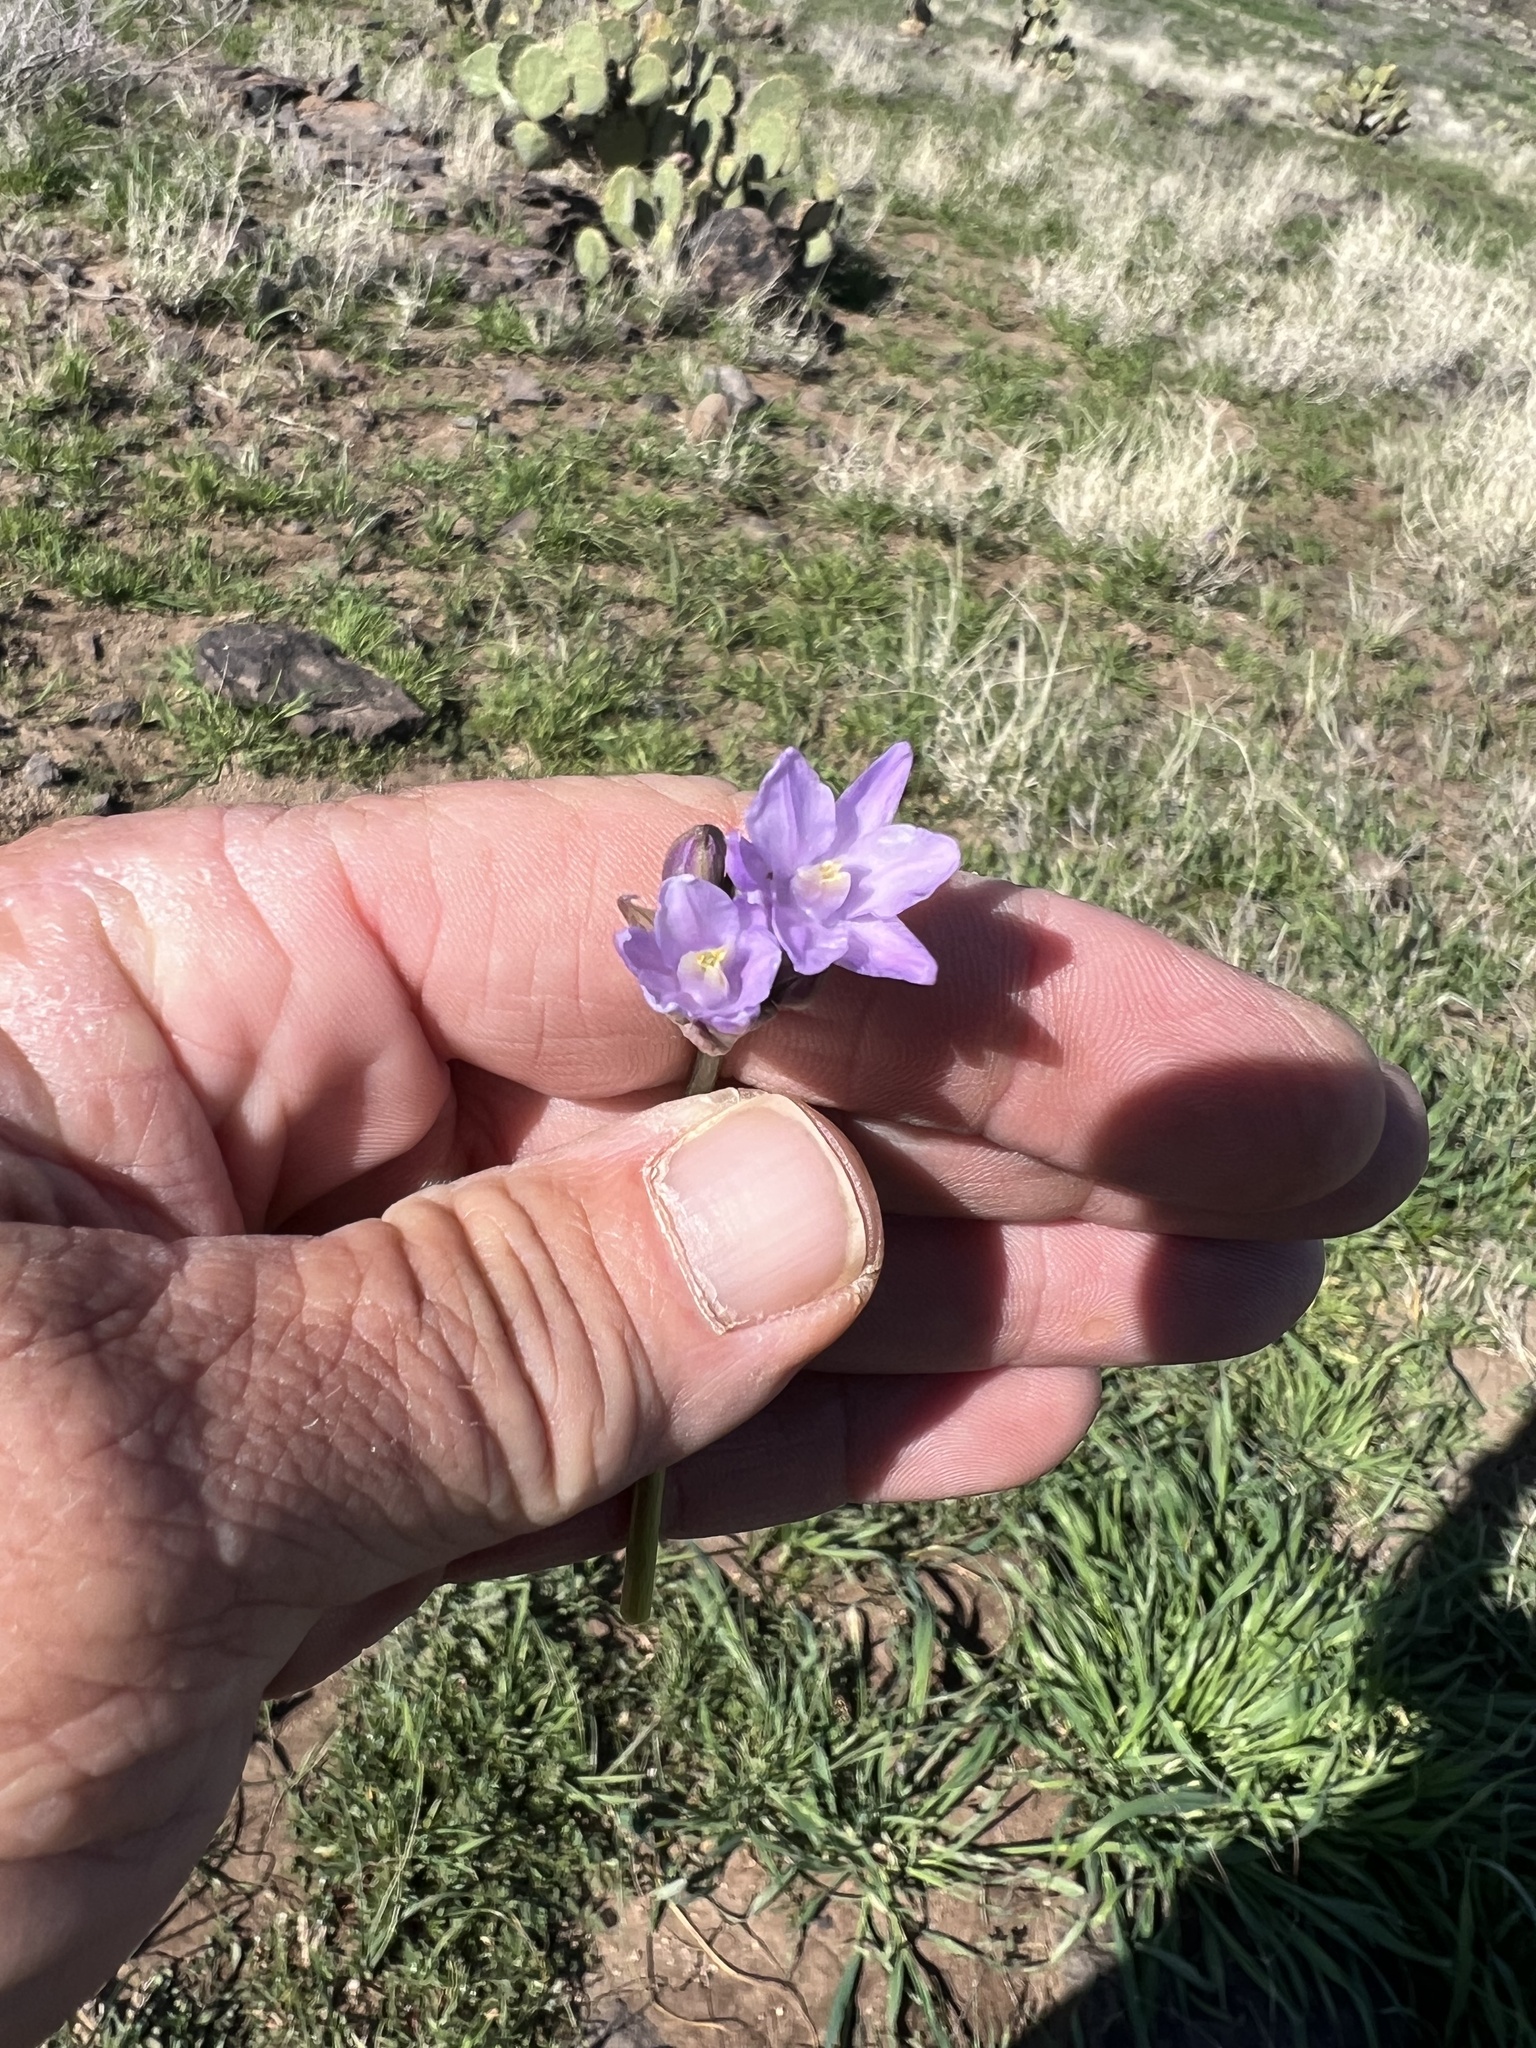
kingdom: Plantae
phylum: Tracheophyta
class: Liliopsida
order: Asparagales
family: Asparagaceae
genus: Dipterostemon
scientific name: Dipterostemon capitatus
